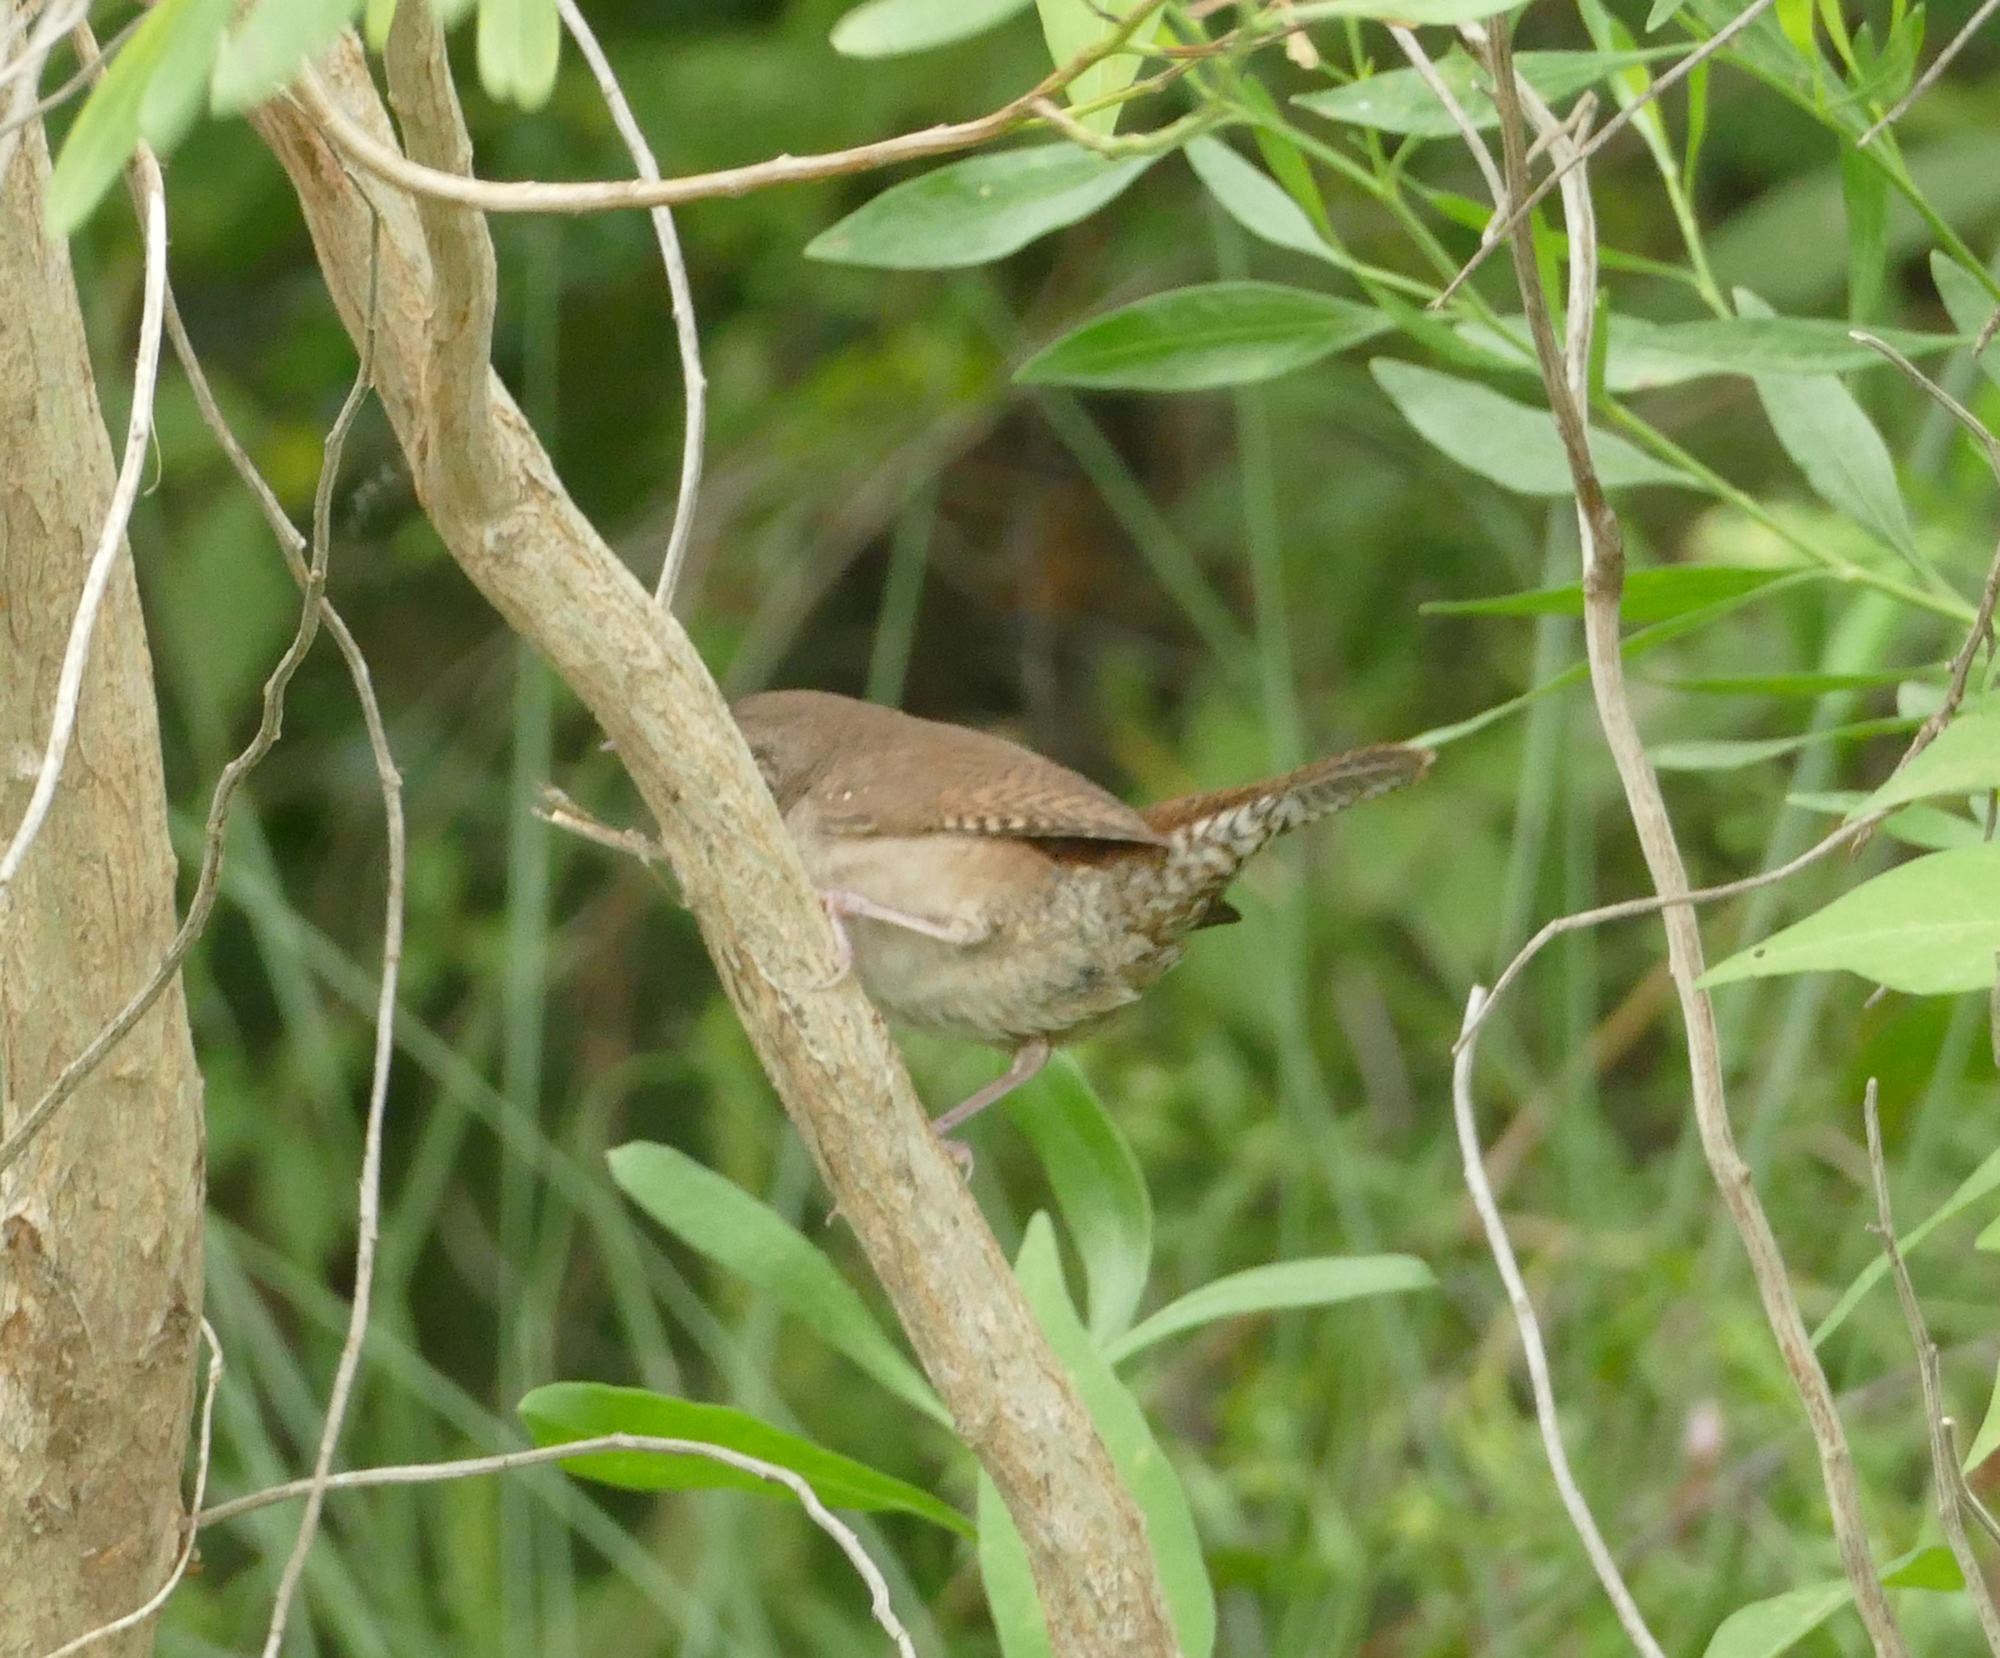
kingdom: Animalia
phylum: Chordata
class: Aves
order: Passeriformes
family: Troglodytidae
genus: Troglodytes
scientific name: Troglodytes aedon
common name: House wren
